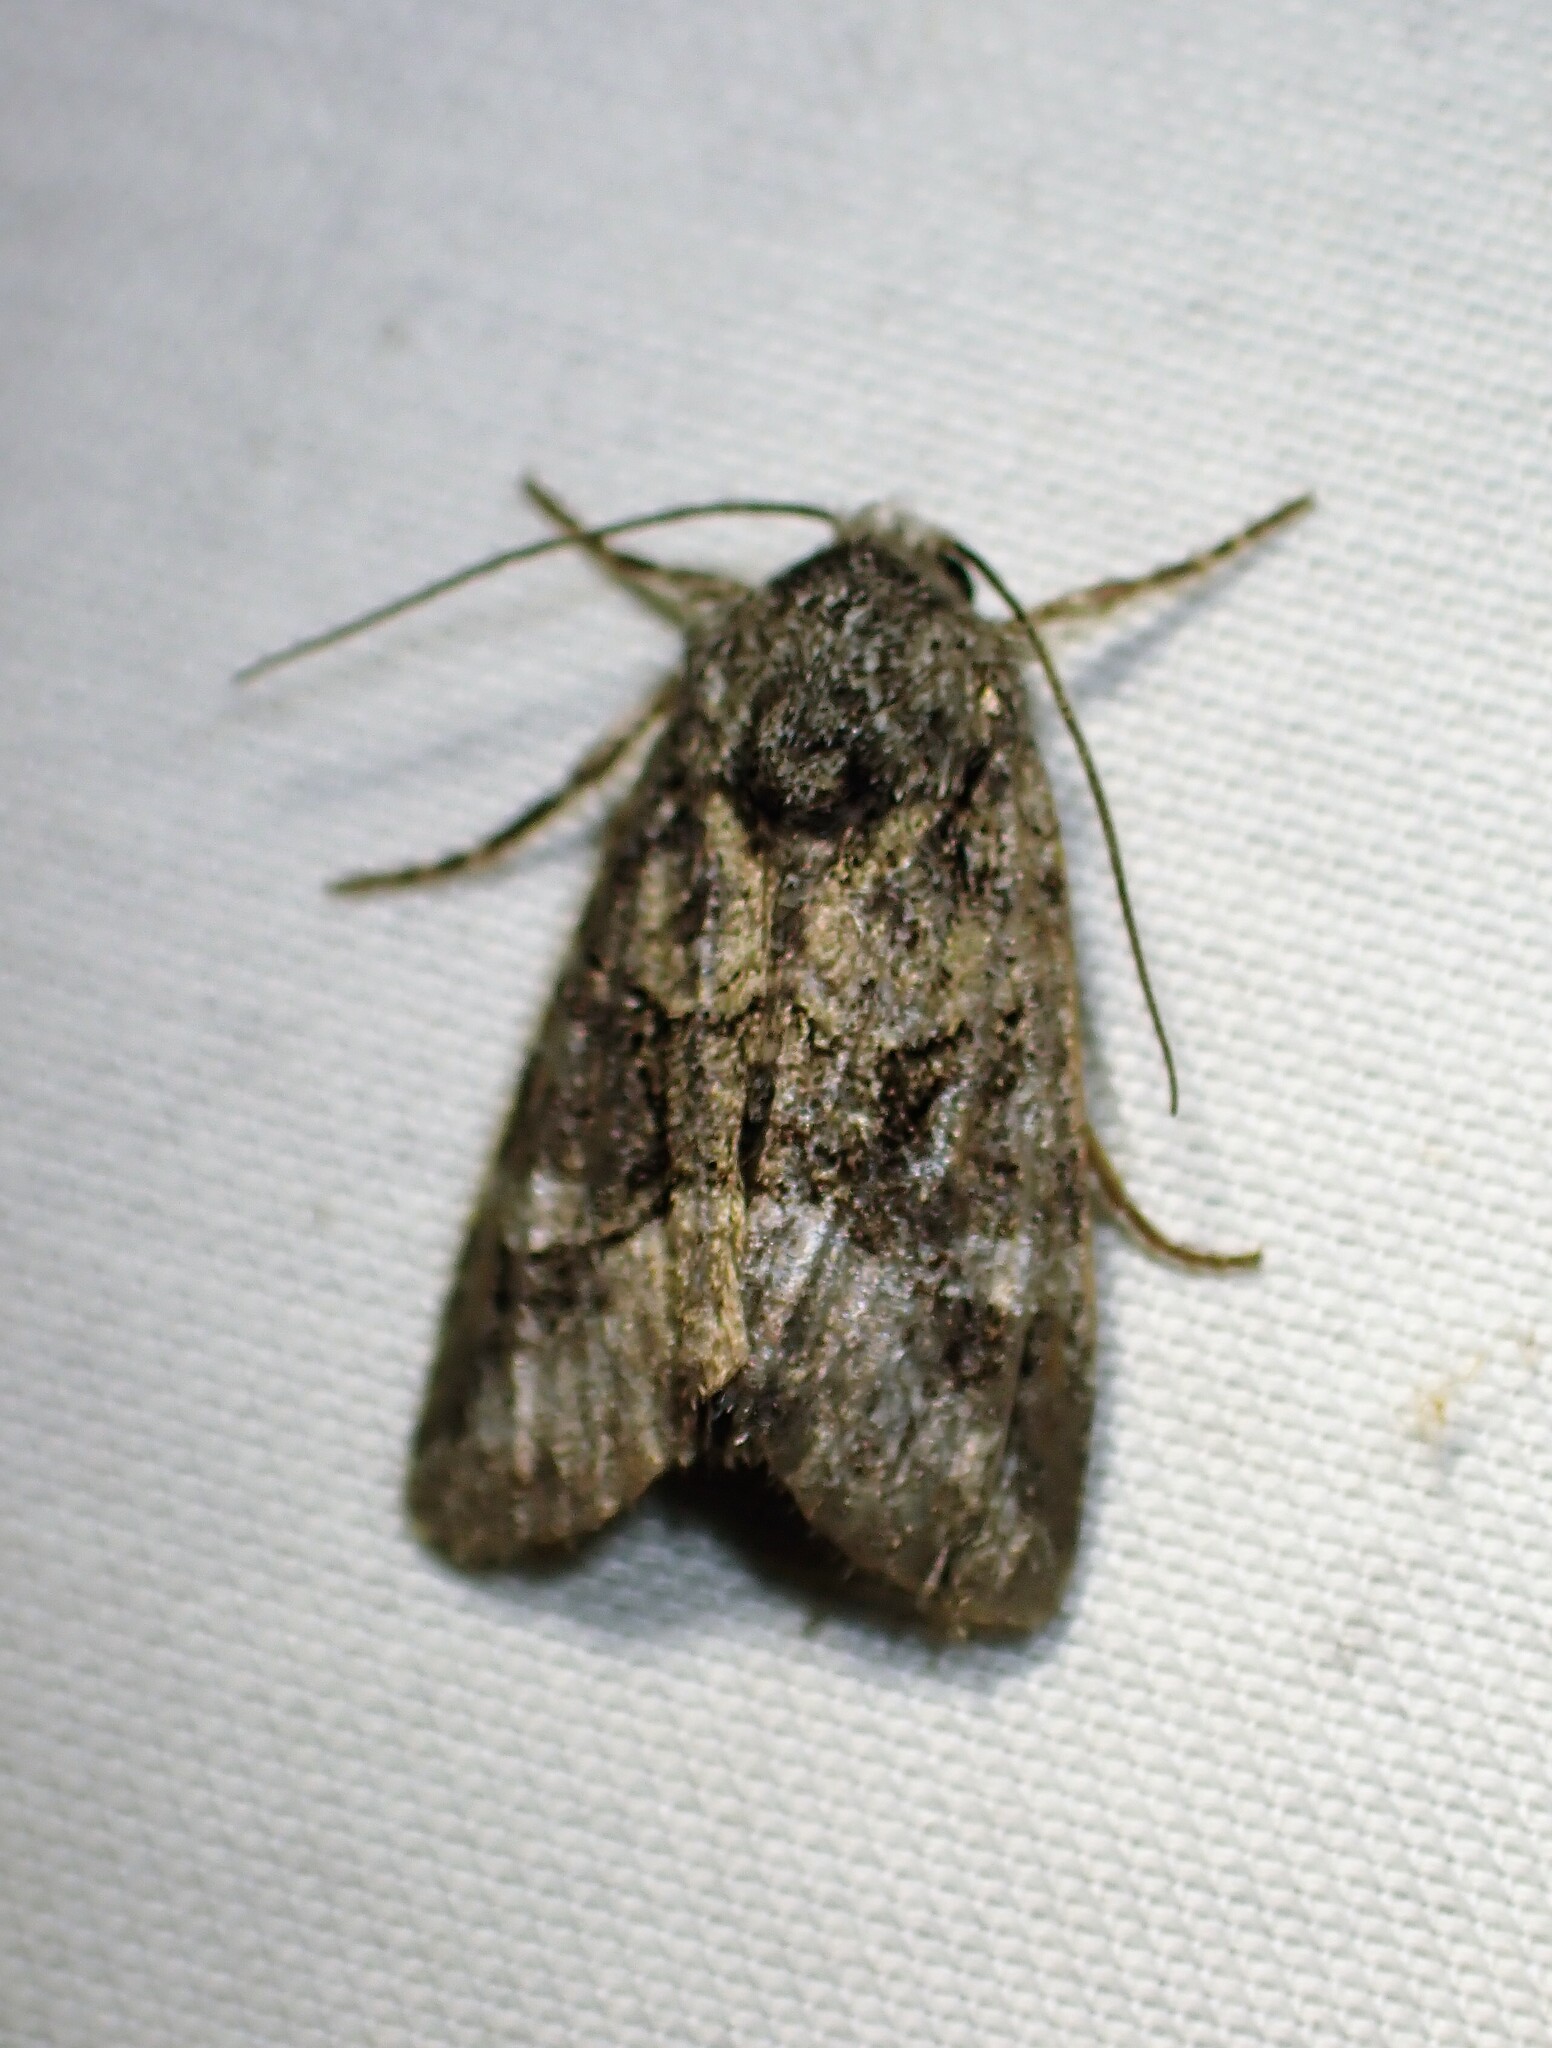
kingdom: Animalia
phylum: Arthropoda
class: Insecta
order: Lepidoptera
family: Noctuidae
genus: Lacinipolia
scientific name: Lacinipolia olivacea
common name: Olive arches moth
